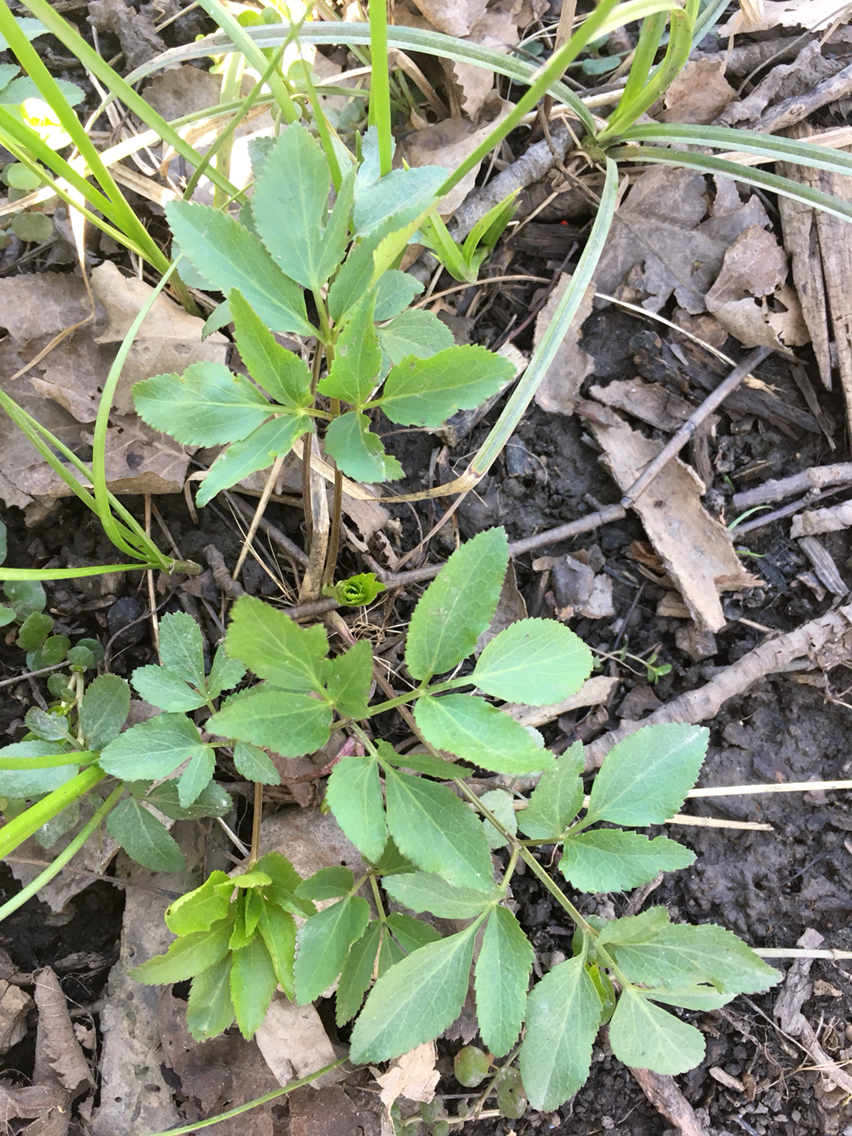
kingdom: Plantae
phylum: Tracheophyta
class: Magnoliopsida
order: Apiales
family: Apiaceae
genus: Zizia
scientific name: Zizia aurea
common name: Golden alexanders
